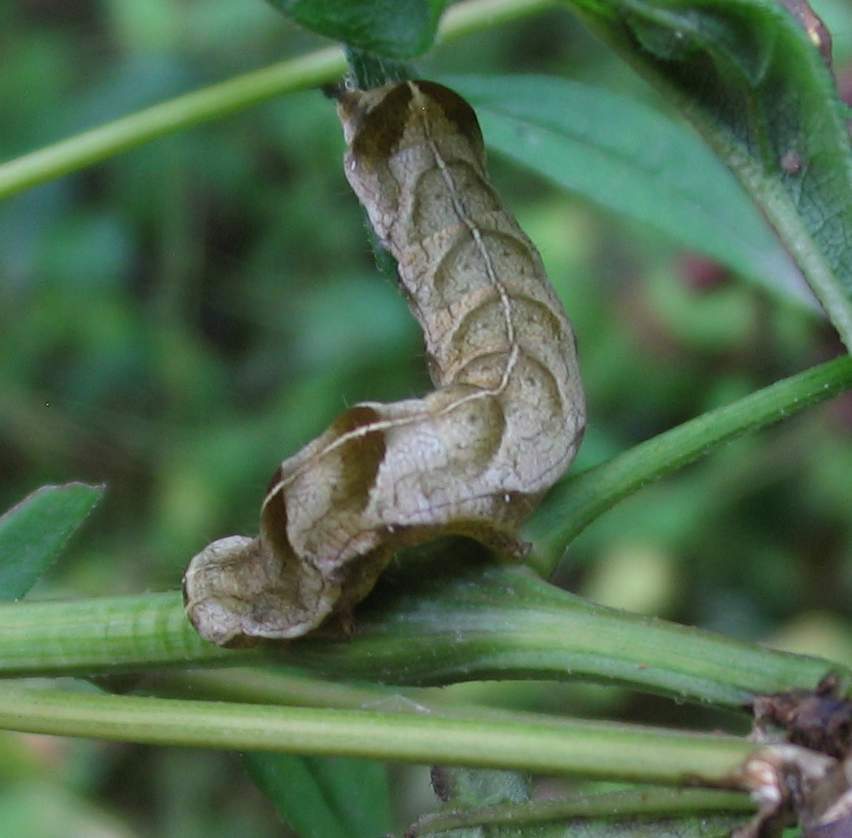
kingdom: Animalia
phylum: Arthropoda
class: Insecta
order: Lepidoptera
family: Noctuidae
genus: Melanchra
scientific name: Melanchra adjuncta
